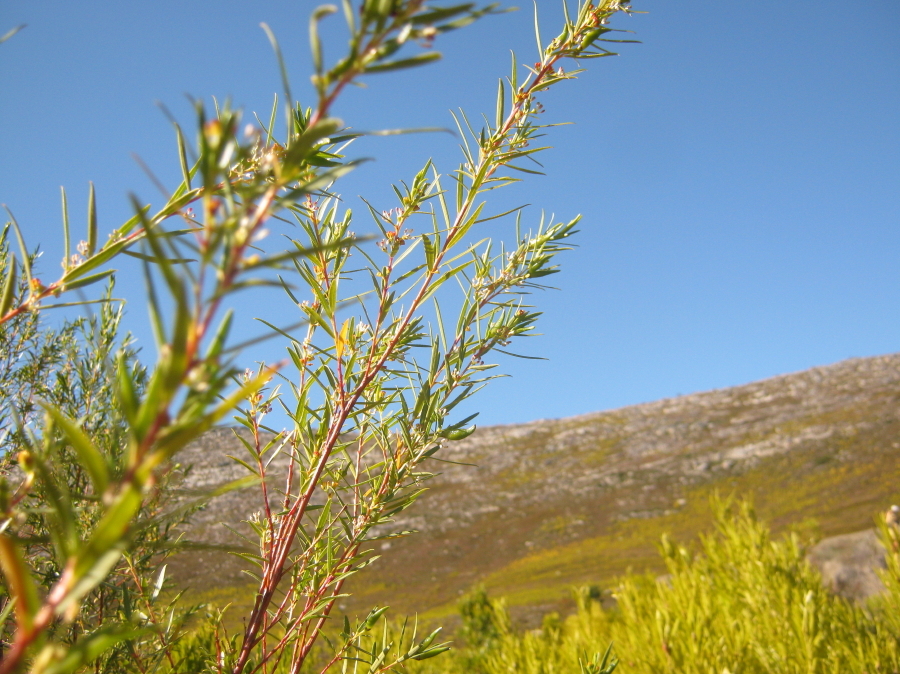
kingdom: Plantae
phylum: Tracheophyta
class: Magnoliopsida
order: Sapindales
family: Rutaceae
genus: Empleurum
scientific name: Empleurum unicapsulare
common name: False buchu
